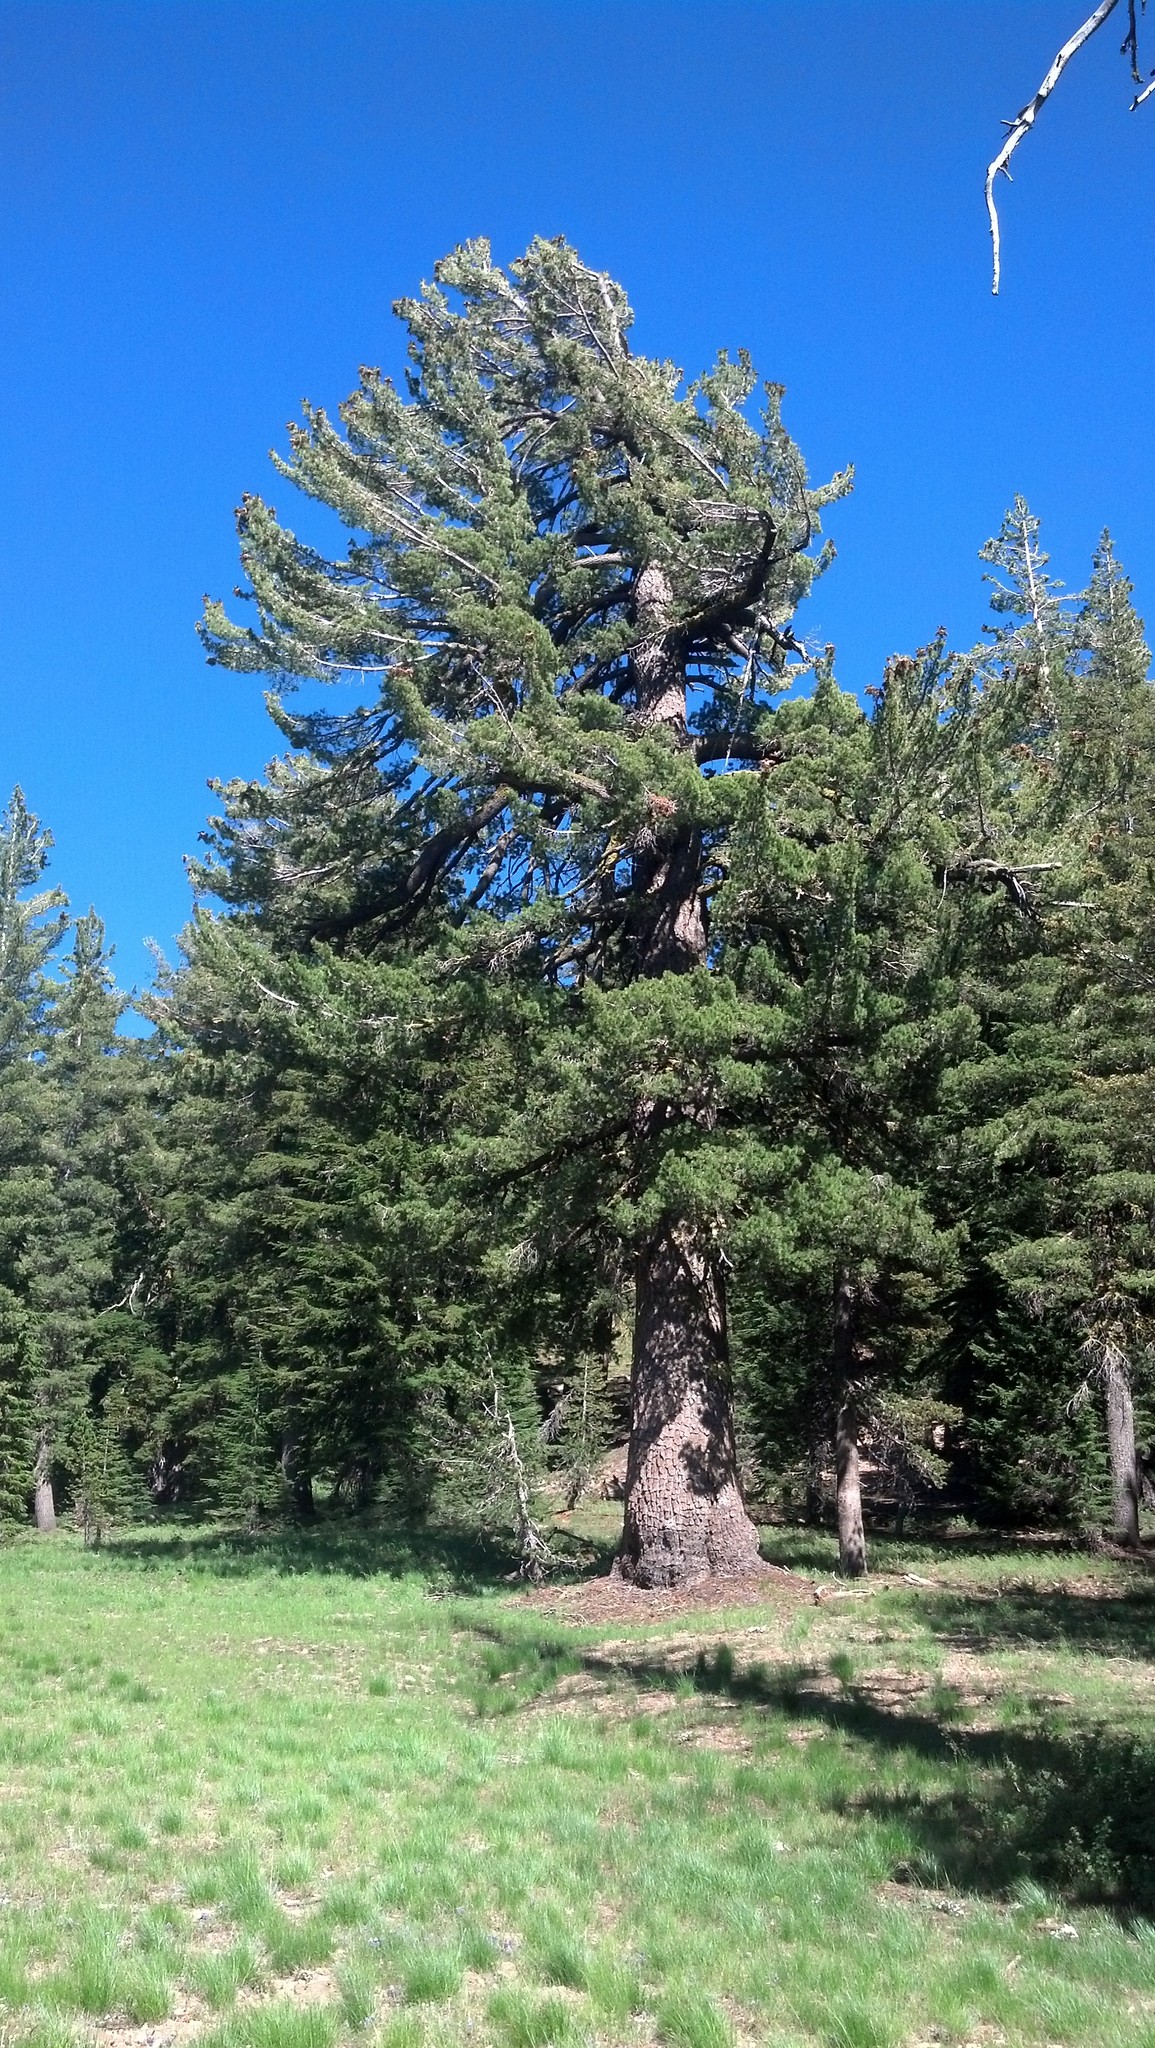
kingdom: Plantae
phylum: Tracheophyta
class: Pinopsida
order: Pinales
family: Pinaceae
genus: Pinus
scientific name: Pinus monticola
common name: Western white pine
